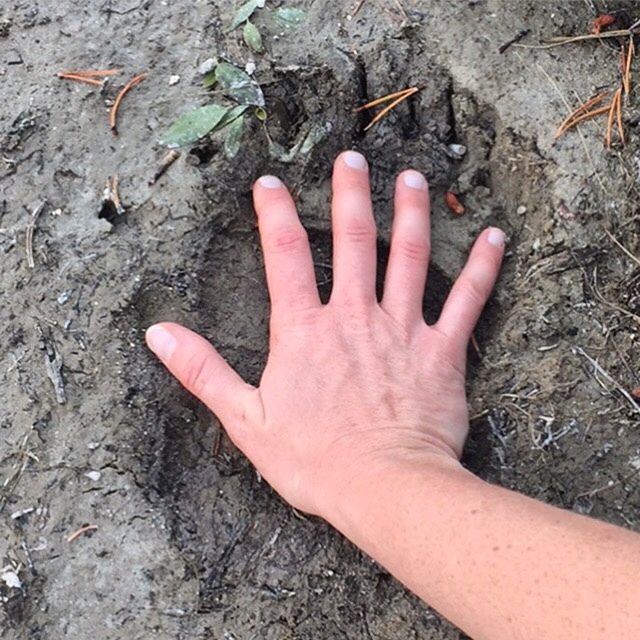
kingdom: Animalia
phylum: Chordata
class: Mammalia
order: Carnivora
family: Ursidae
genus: Ursus
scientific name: Ursus arctos
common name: Brown bear
